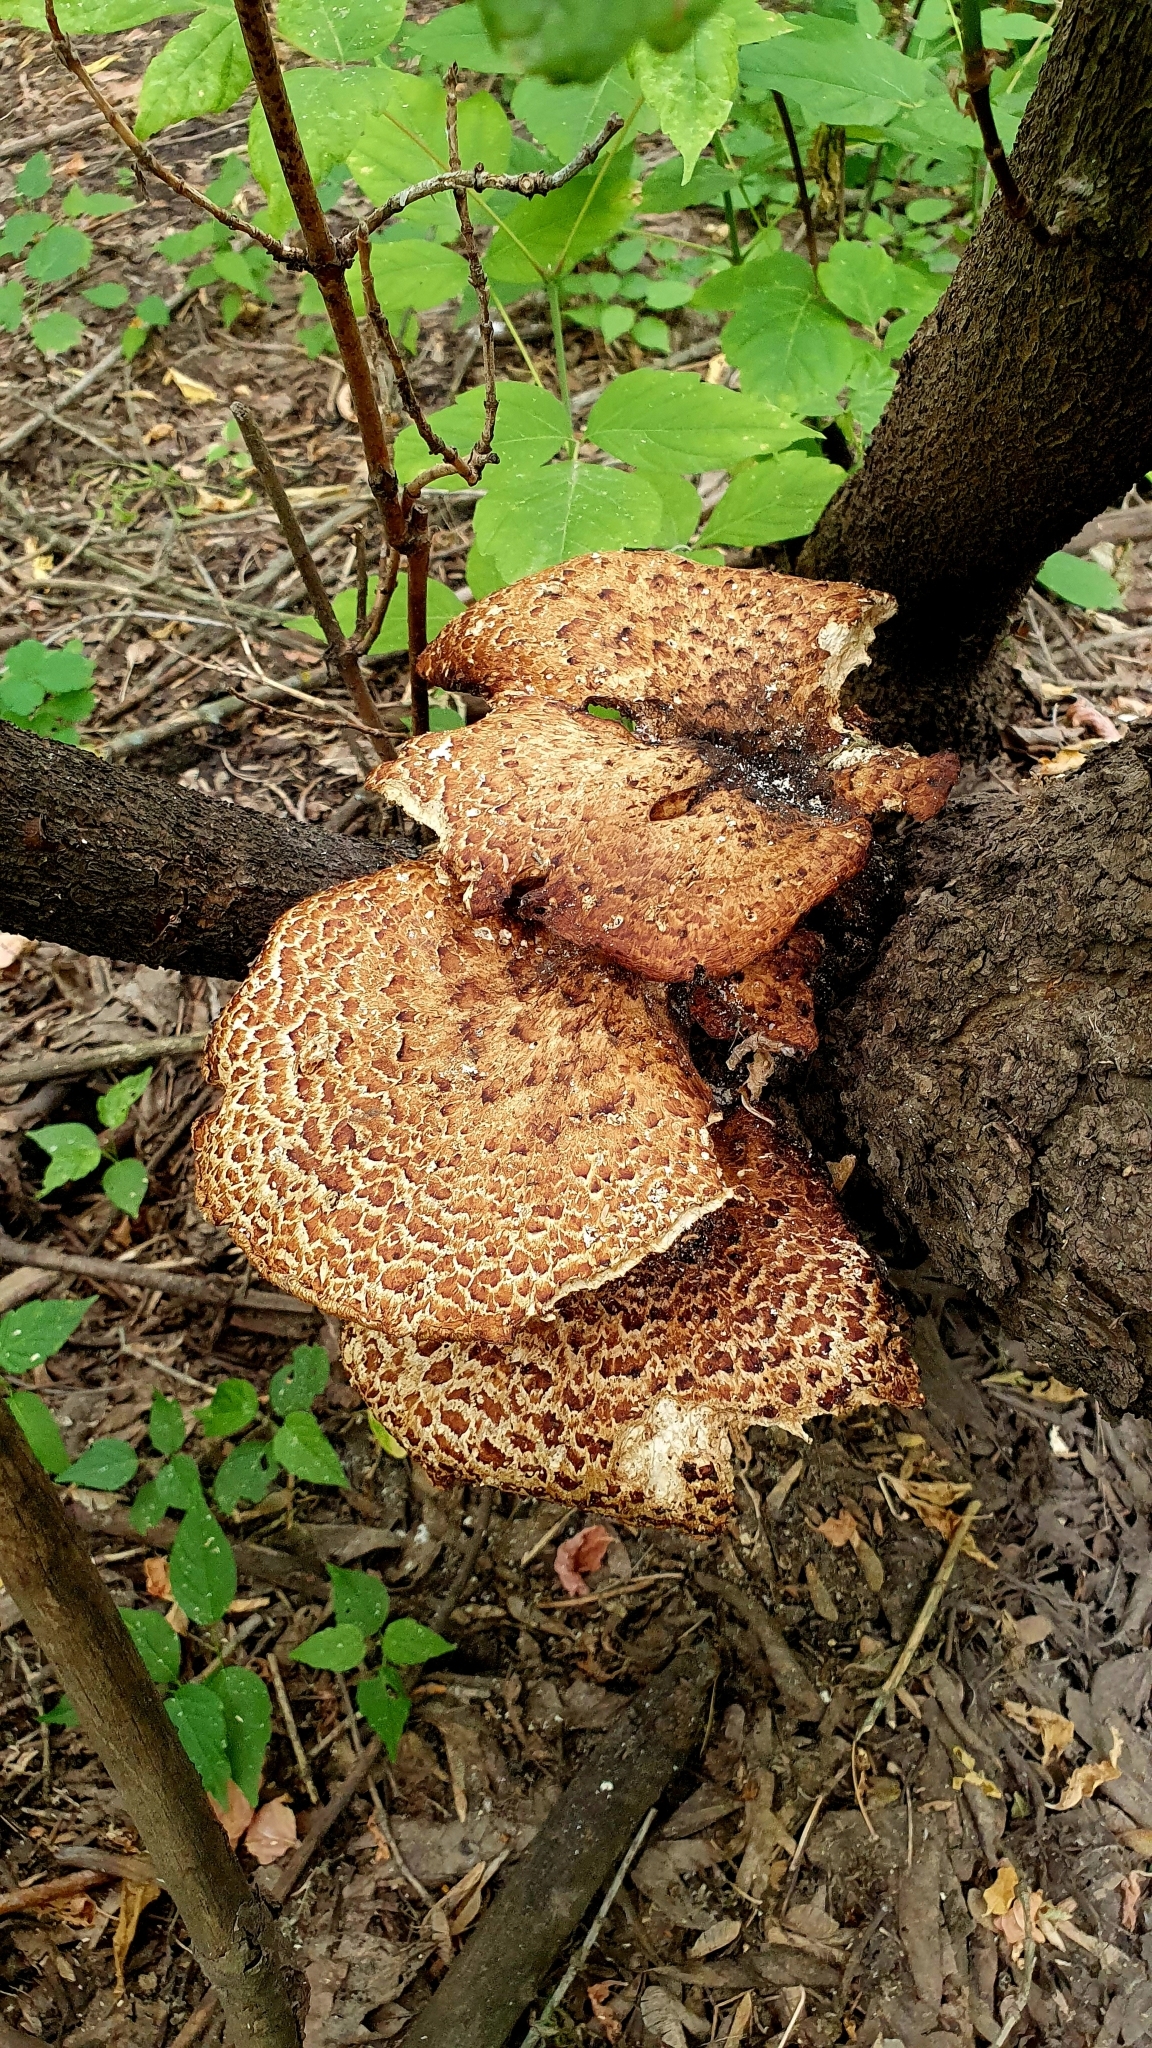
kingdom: Fungi
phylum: Basidiomycota
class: Agaricomycetes
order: Polyporales
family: Polyporaceae
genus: Cerioporus
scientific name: Cerioporus squamosus
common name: Dryad's saddle
